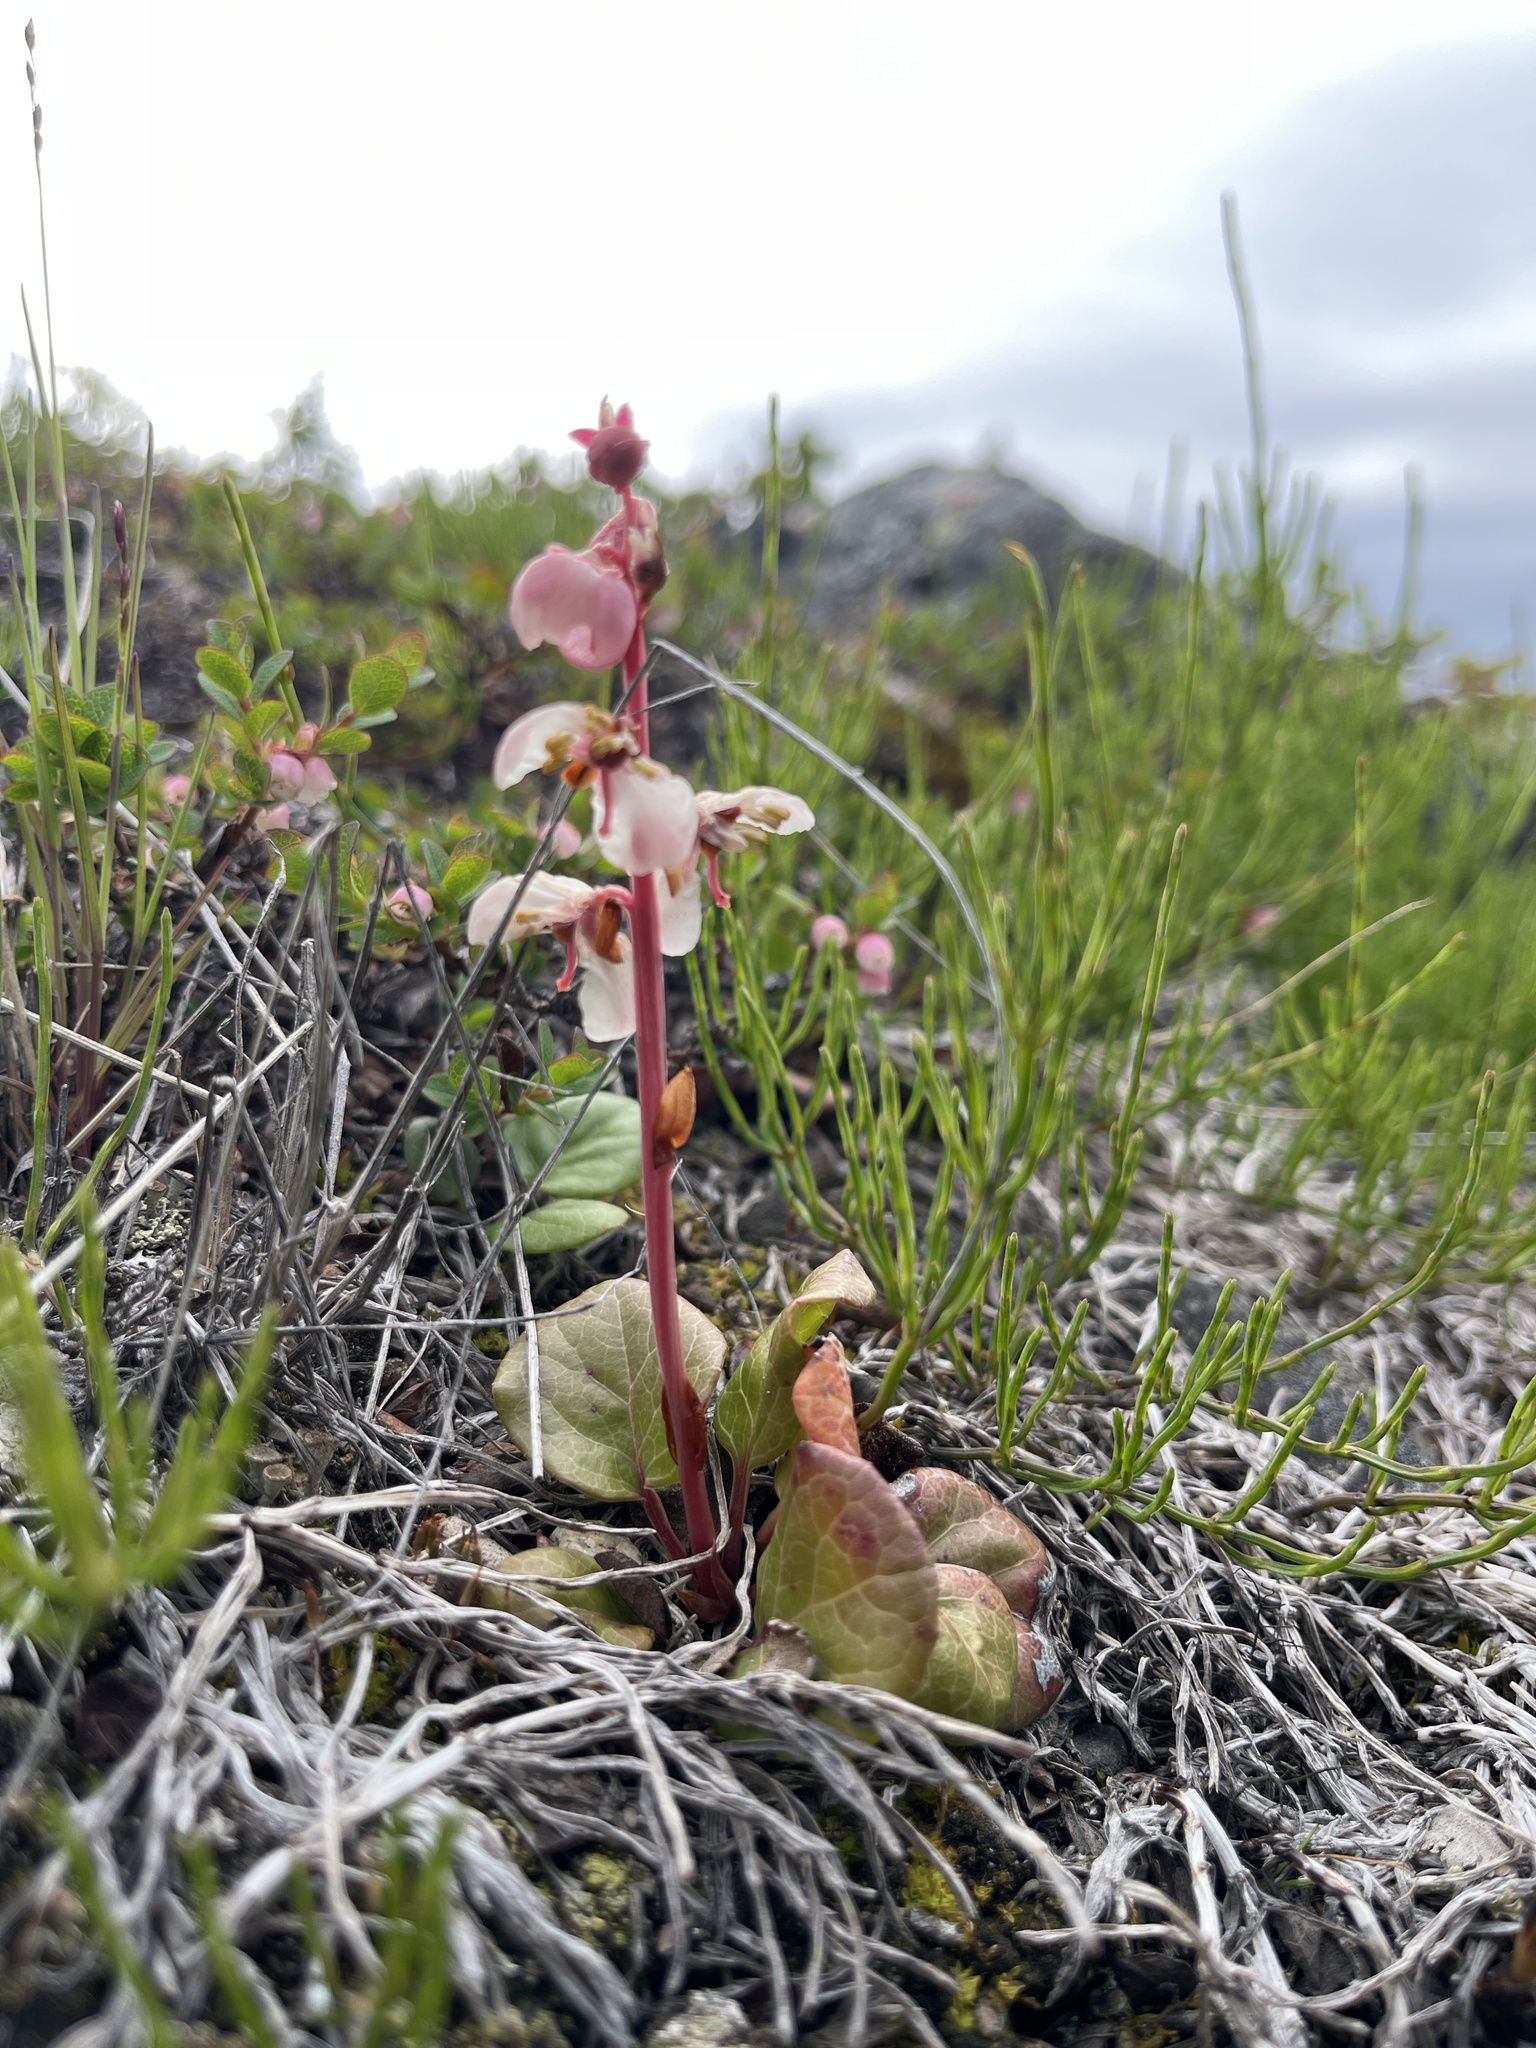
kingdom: Plantae
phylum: Tracheophyta
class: Magnoliopsida
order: Ericales
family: Ericaceae
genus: Pyrola
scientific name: Pyrola grandiflora
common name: Arctic pyrola
